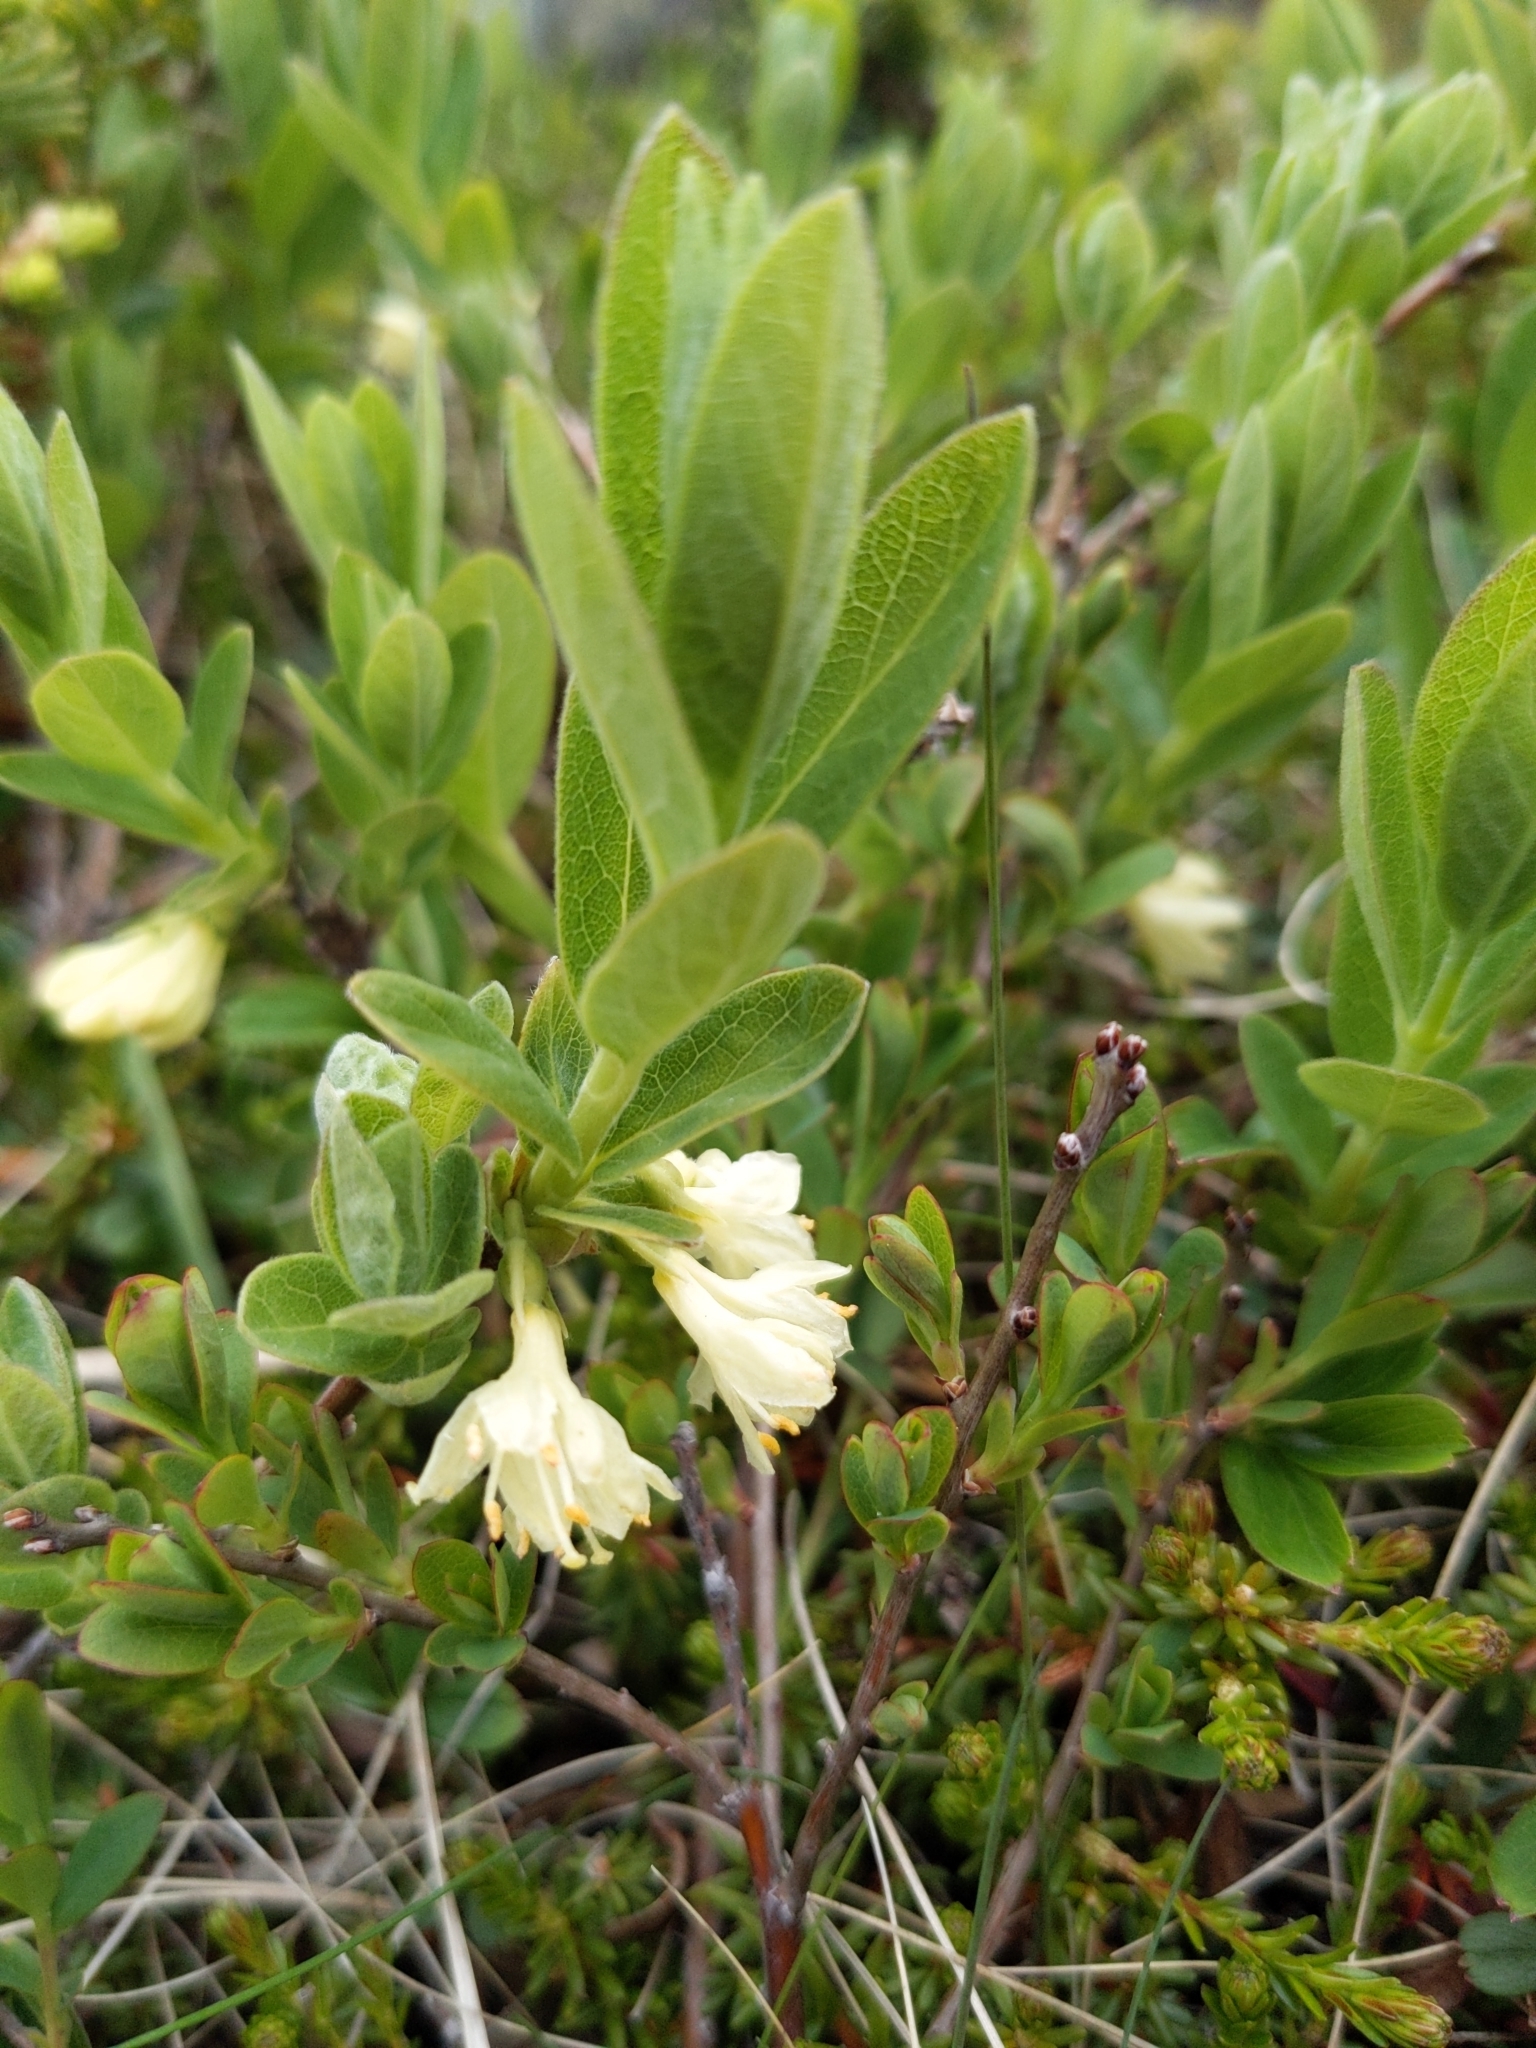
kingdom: Plantae
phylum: Tracheophyta
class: Magnoliopsida
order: Dipsacales
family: Caprifoliaceae
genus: Lonicera
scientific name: Lonicera villosa
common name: Mountain fly-honeysuckle
